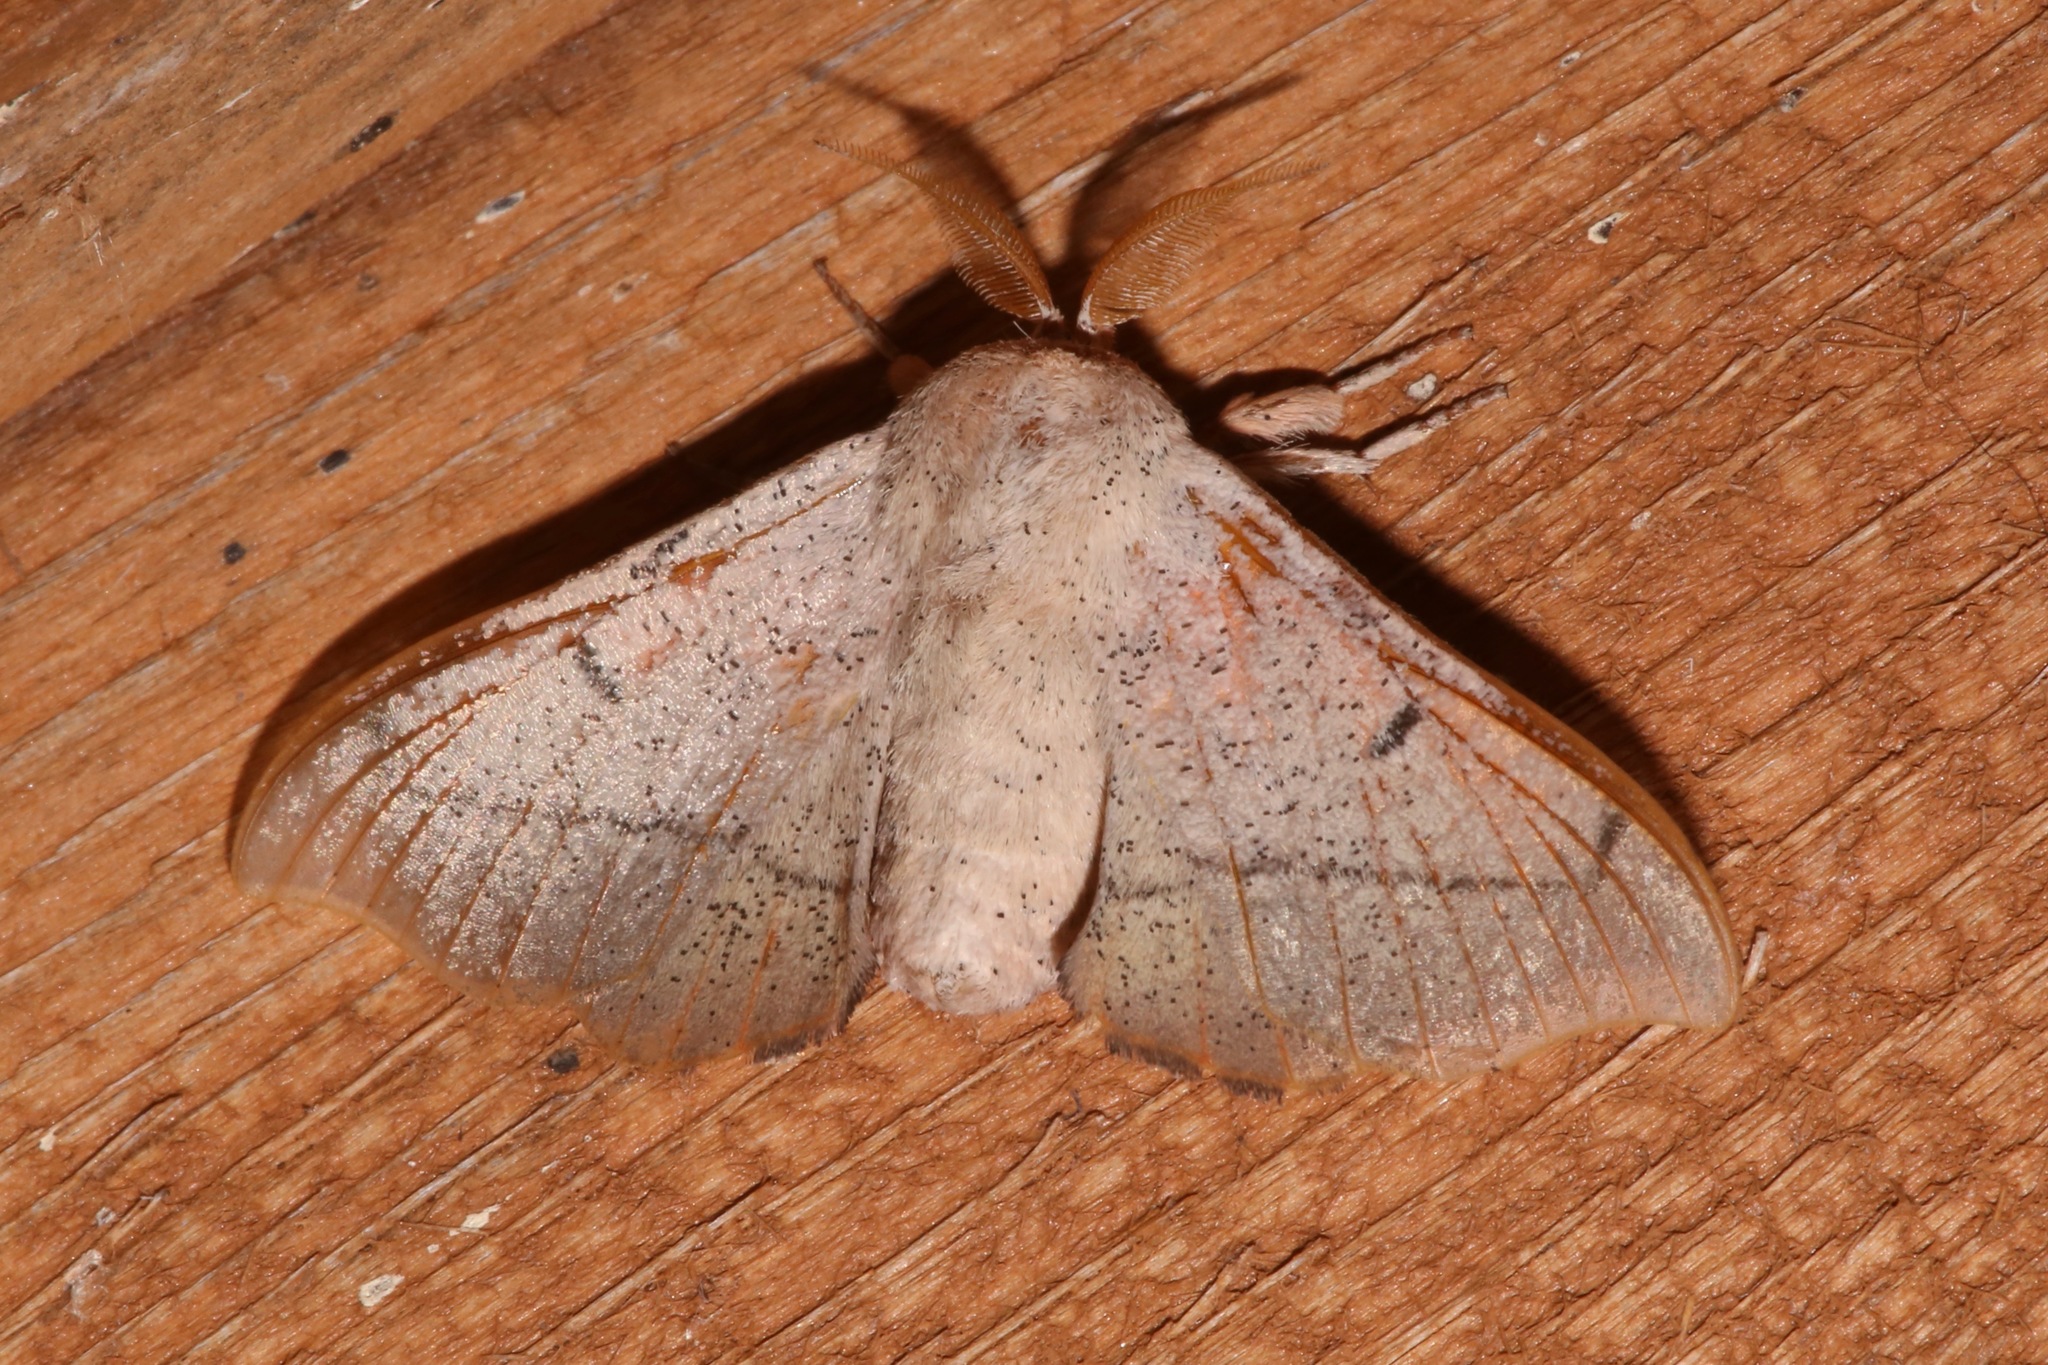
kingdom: Animalia
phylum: Arthropoda
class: Insecta
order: Lepidoptera
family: Mimallonidae
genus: Cicinnus
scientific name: Cicinnus melsheimeri
